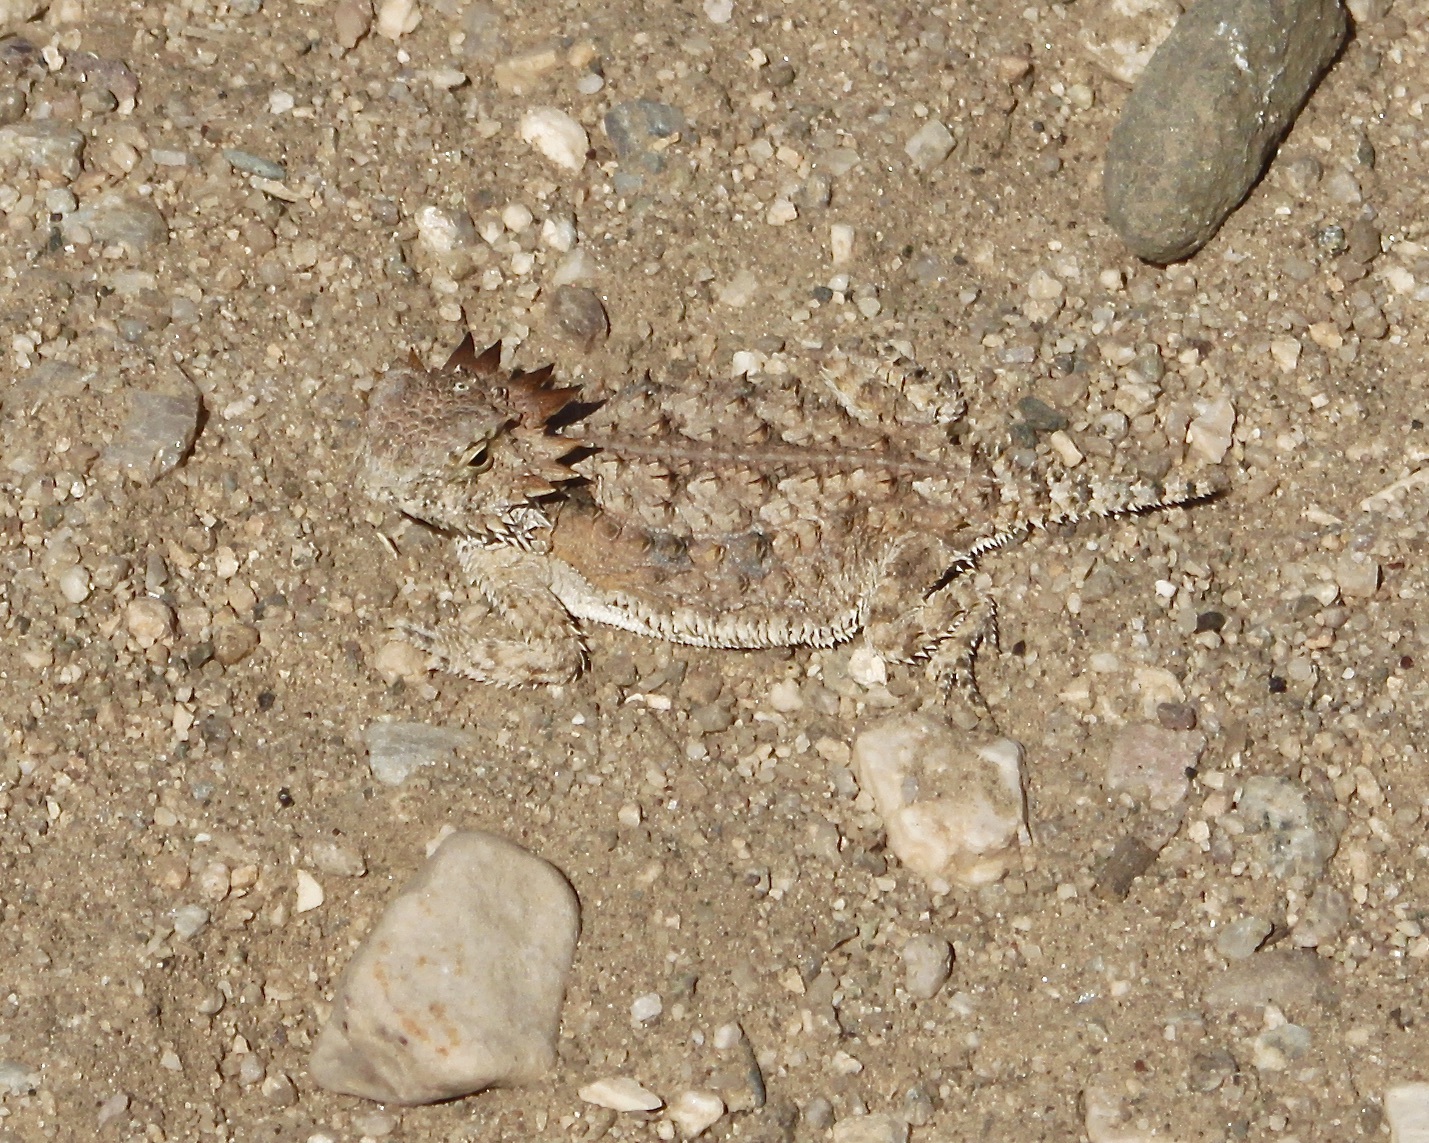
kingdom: Animalia
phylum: Chordata
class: Squamata
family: Phrynosomatidae
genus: Phrynosoma
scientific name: Phrynosoma solare
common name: Regal horned lizard
